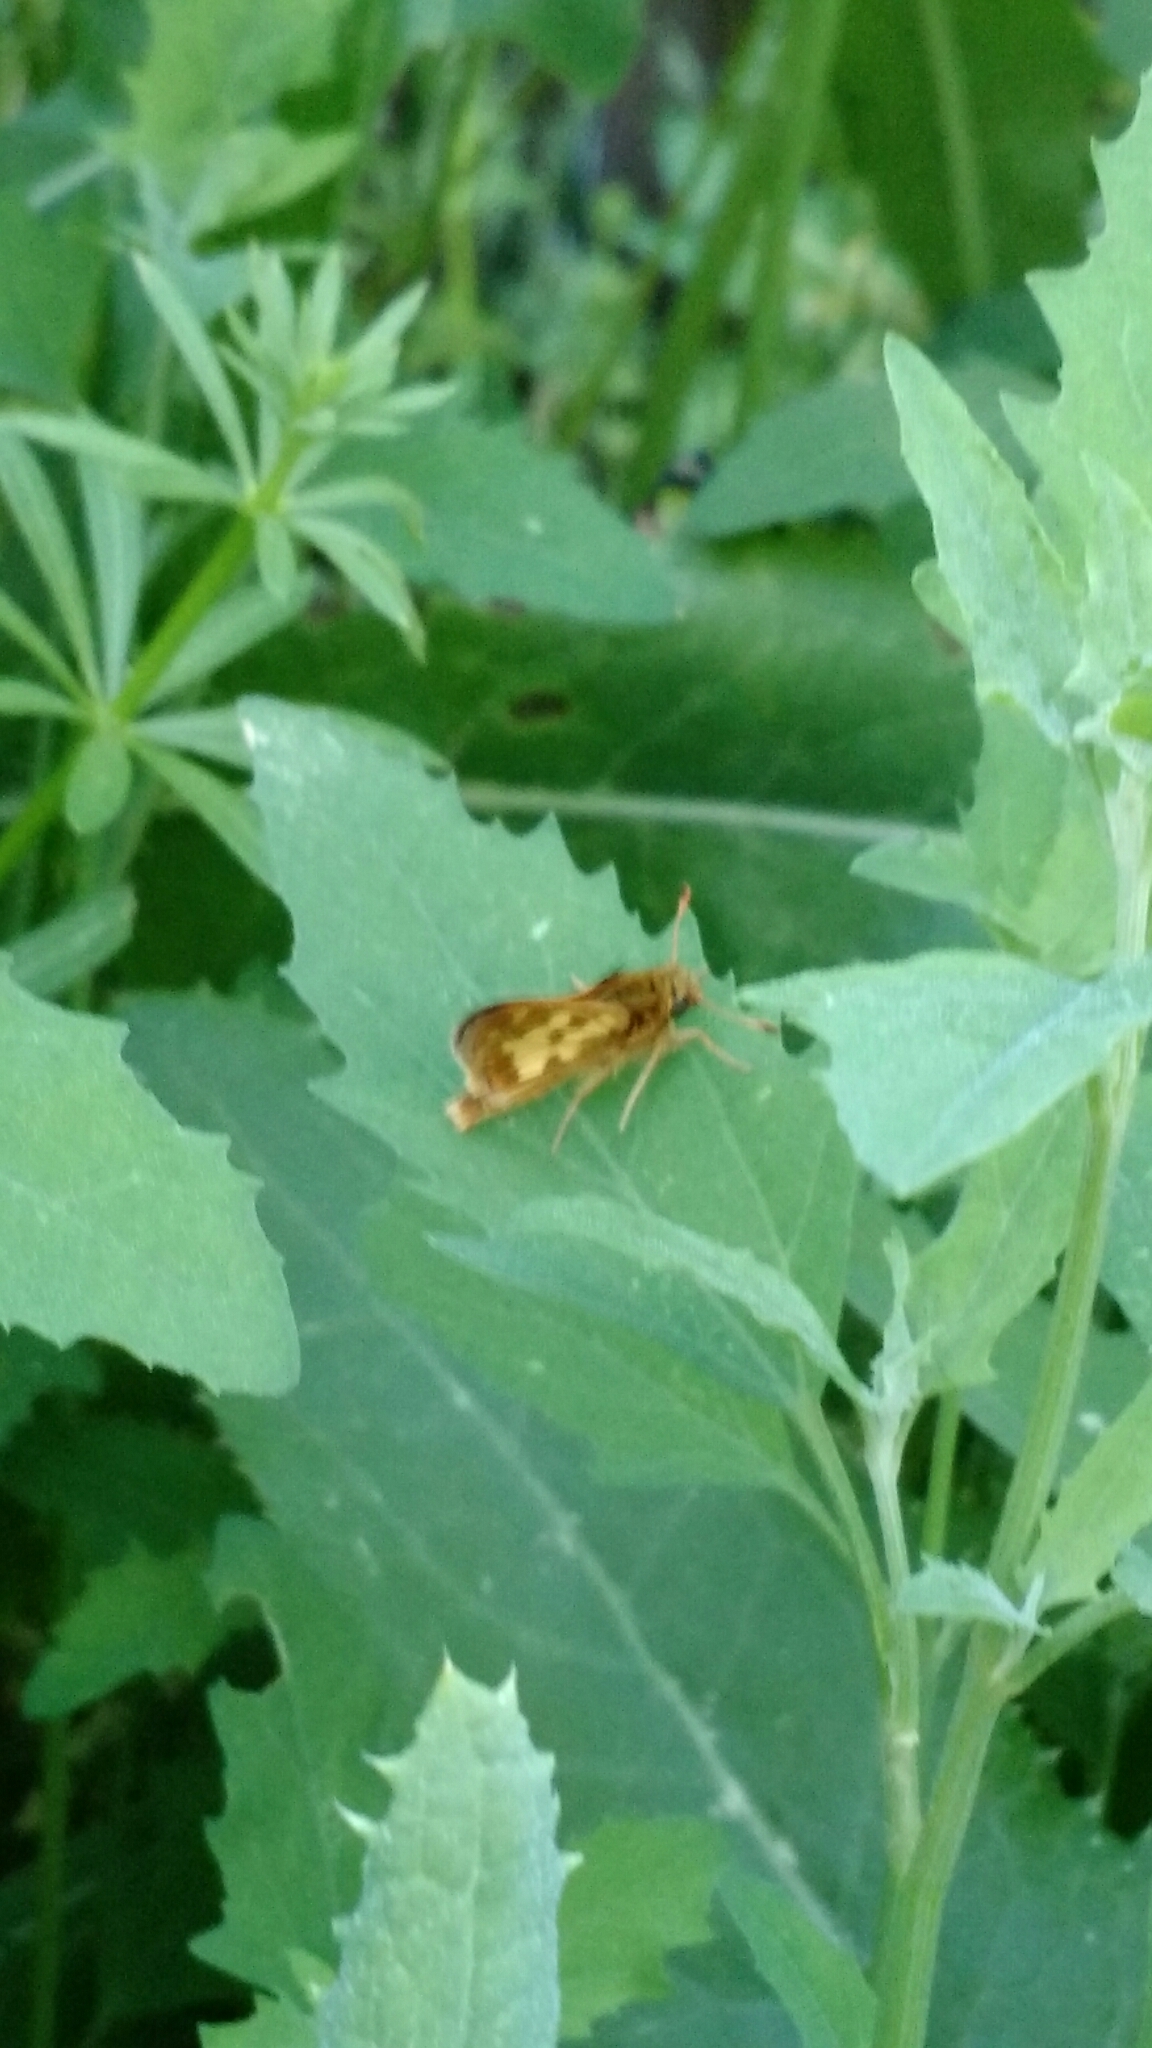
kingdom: Animalia
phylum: Arthropoda
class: Insecta
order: Lepidoptera
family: Hesperiidae
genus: Polites
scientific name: Polites coras
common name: Peck's skipper
